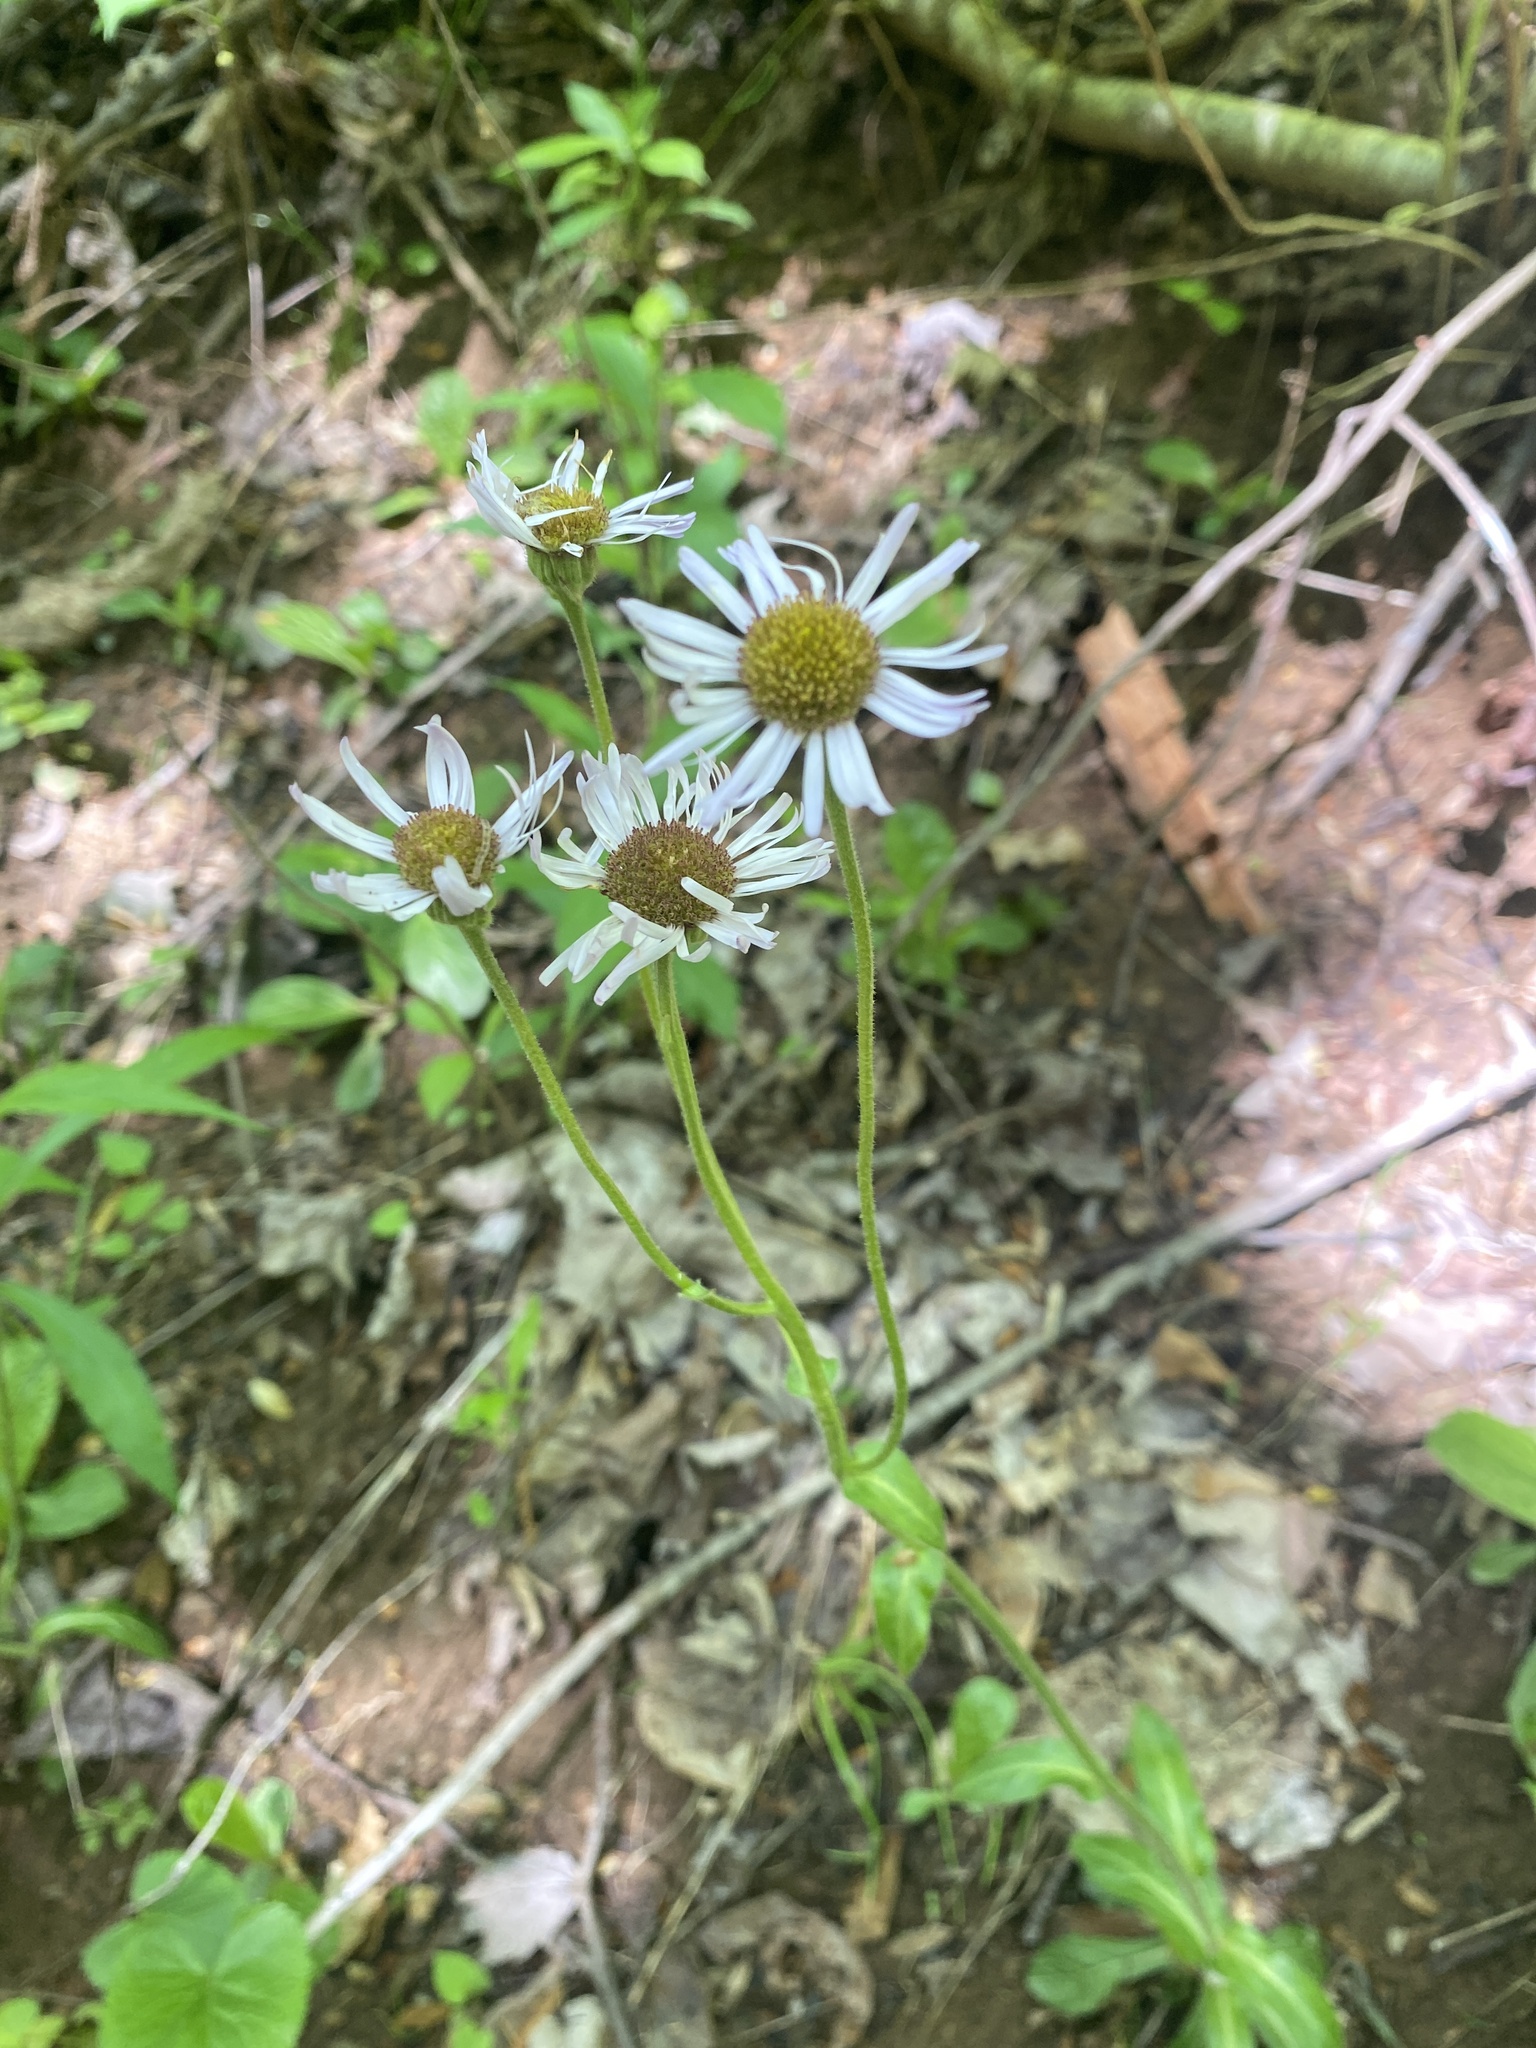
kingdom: Plantae
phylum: Tracheophyta
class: Magnoliopsida
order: Asterales
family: Asteraceae
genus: Erigeron
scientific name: Erigeron pulchellus
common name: Hairy fleabane
